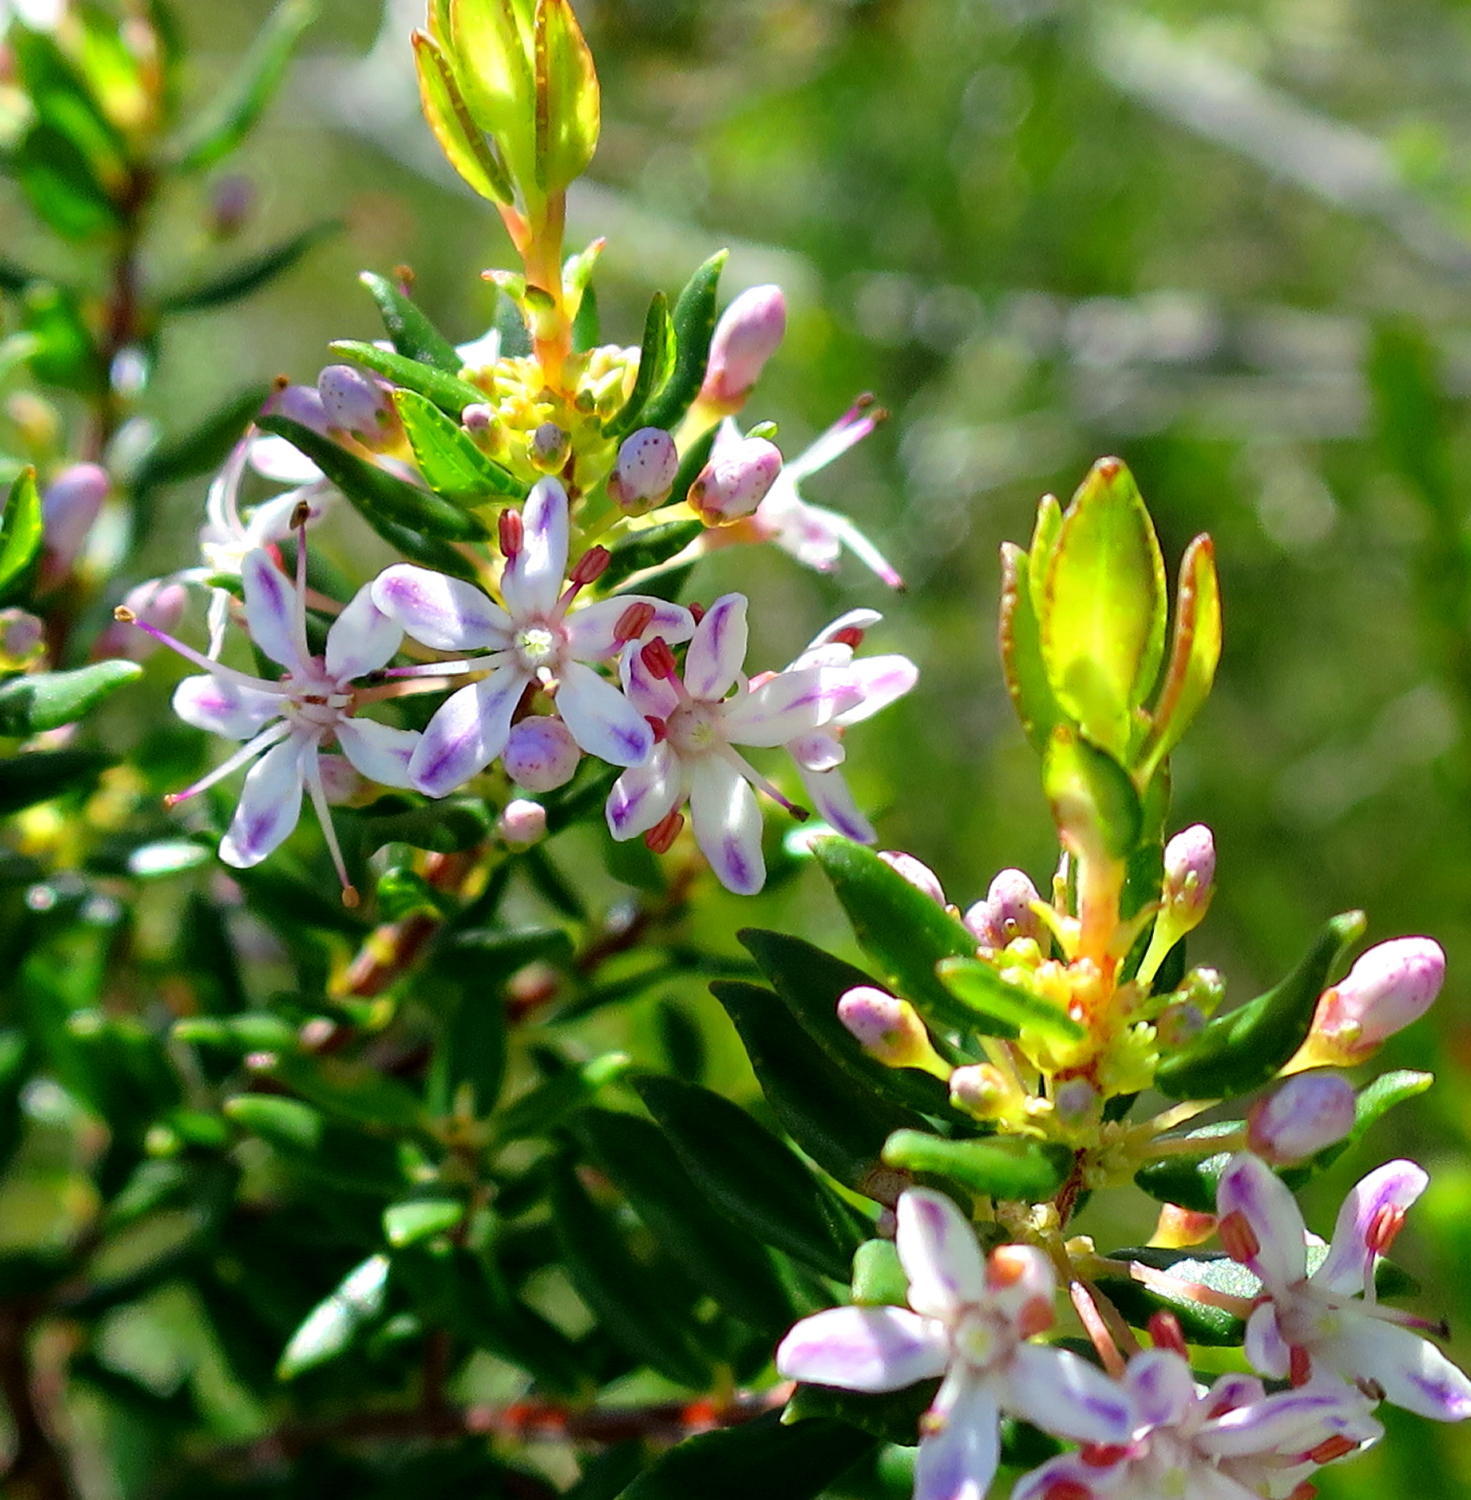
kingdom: Plantae
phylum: Tracheophyta
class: Magnoliopsida
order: Sapindales
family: Rutaceae
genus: Agathosma
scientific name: Agathosma ovata
